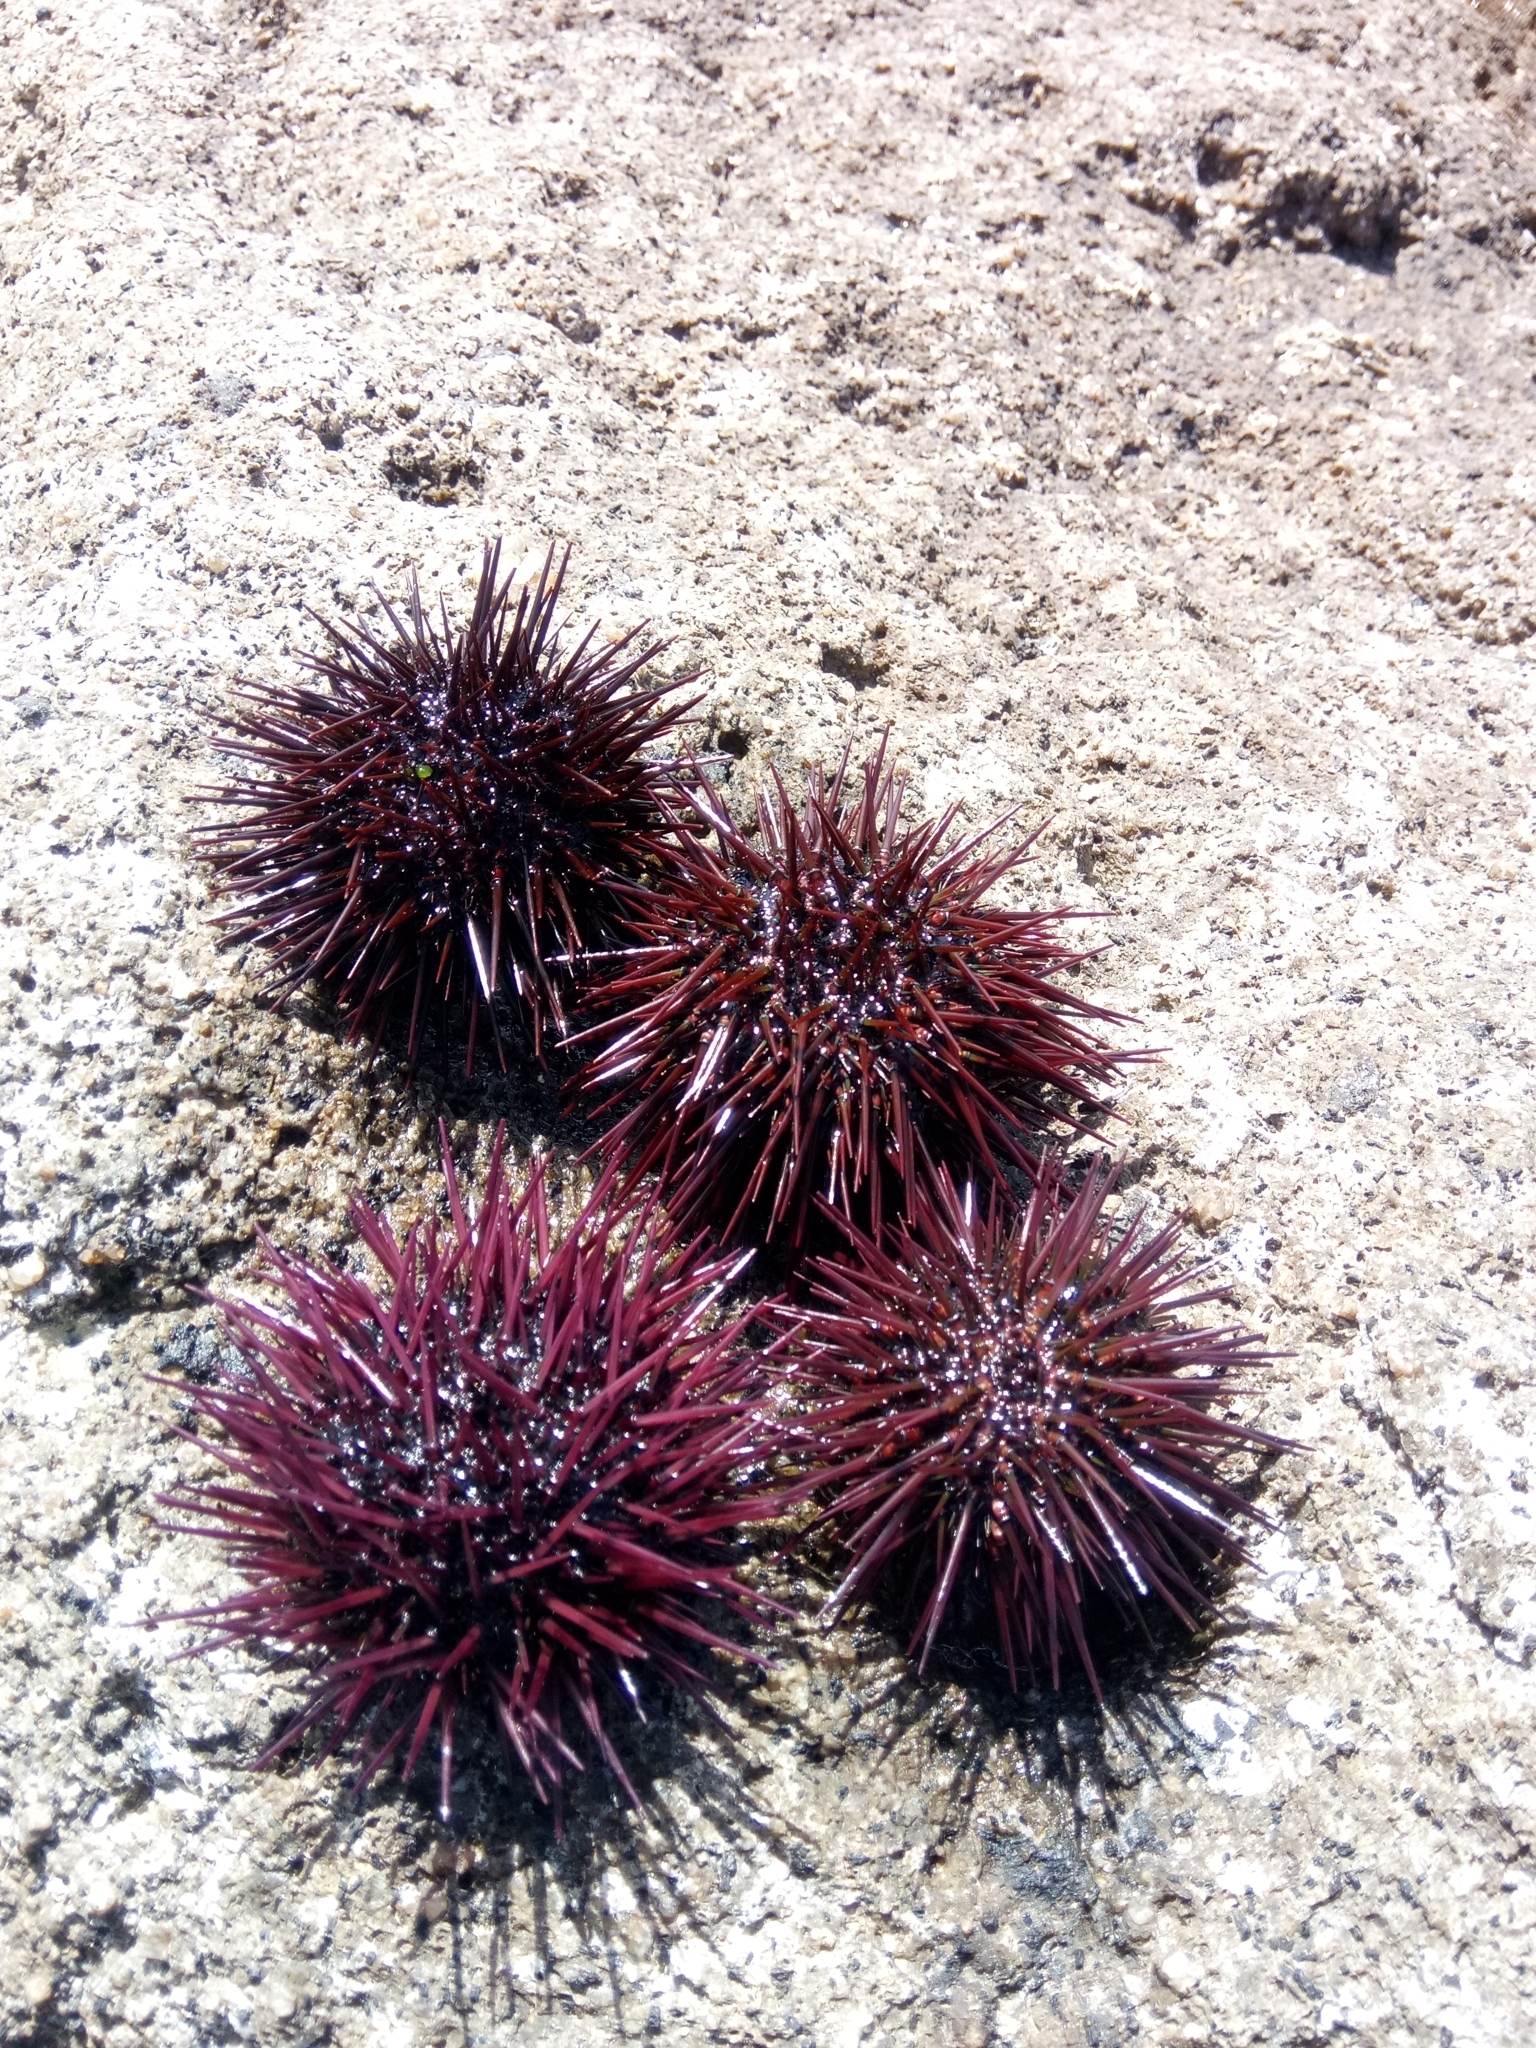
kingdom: Animalia
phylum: Echinodermata
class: Echinoidea
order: Camarodonta
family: Parechinidae
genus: Paracentrotus
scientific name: Paracentrotus lividus
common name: Purple sea urchin
